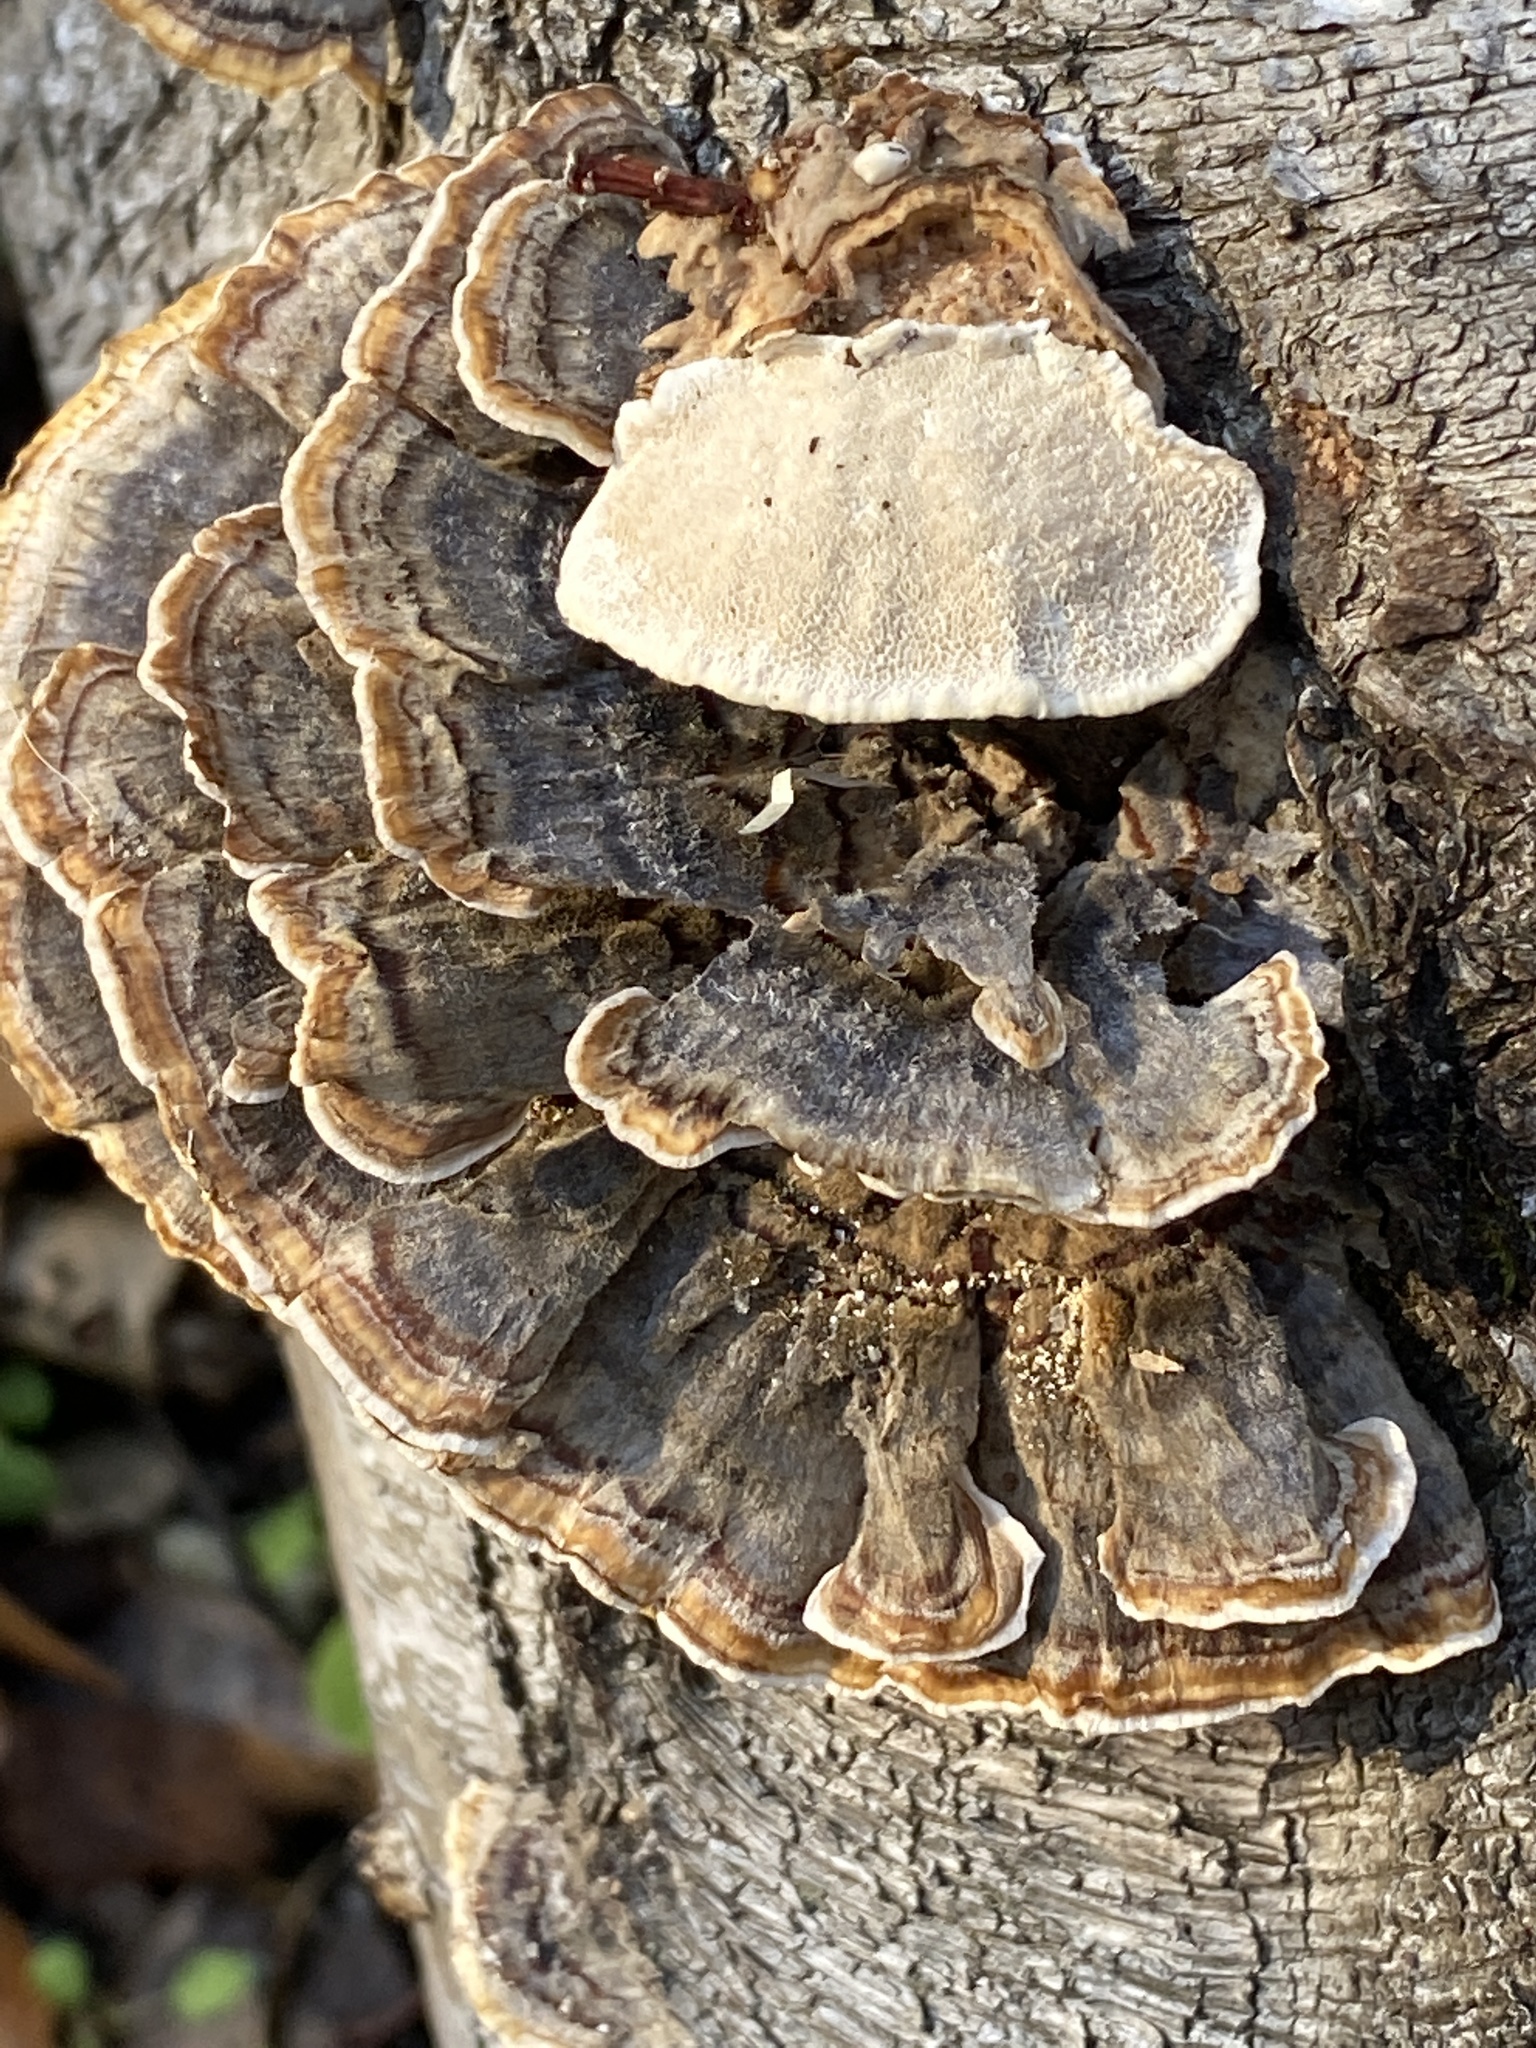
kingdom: Fungi
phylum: Basidiomycota
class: Agaricomycetes
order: Polyporales
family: Polyporaceae
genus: Trametes
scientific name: Trametes versicolor
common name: Turkeytail
